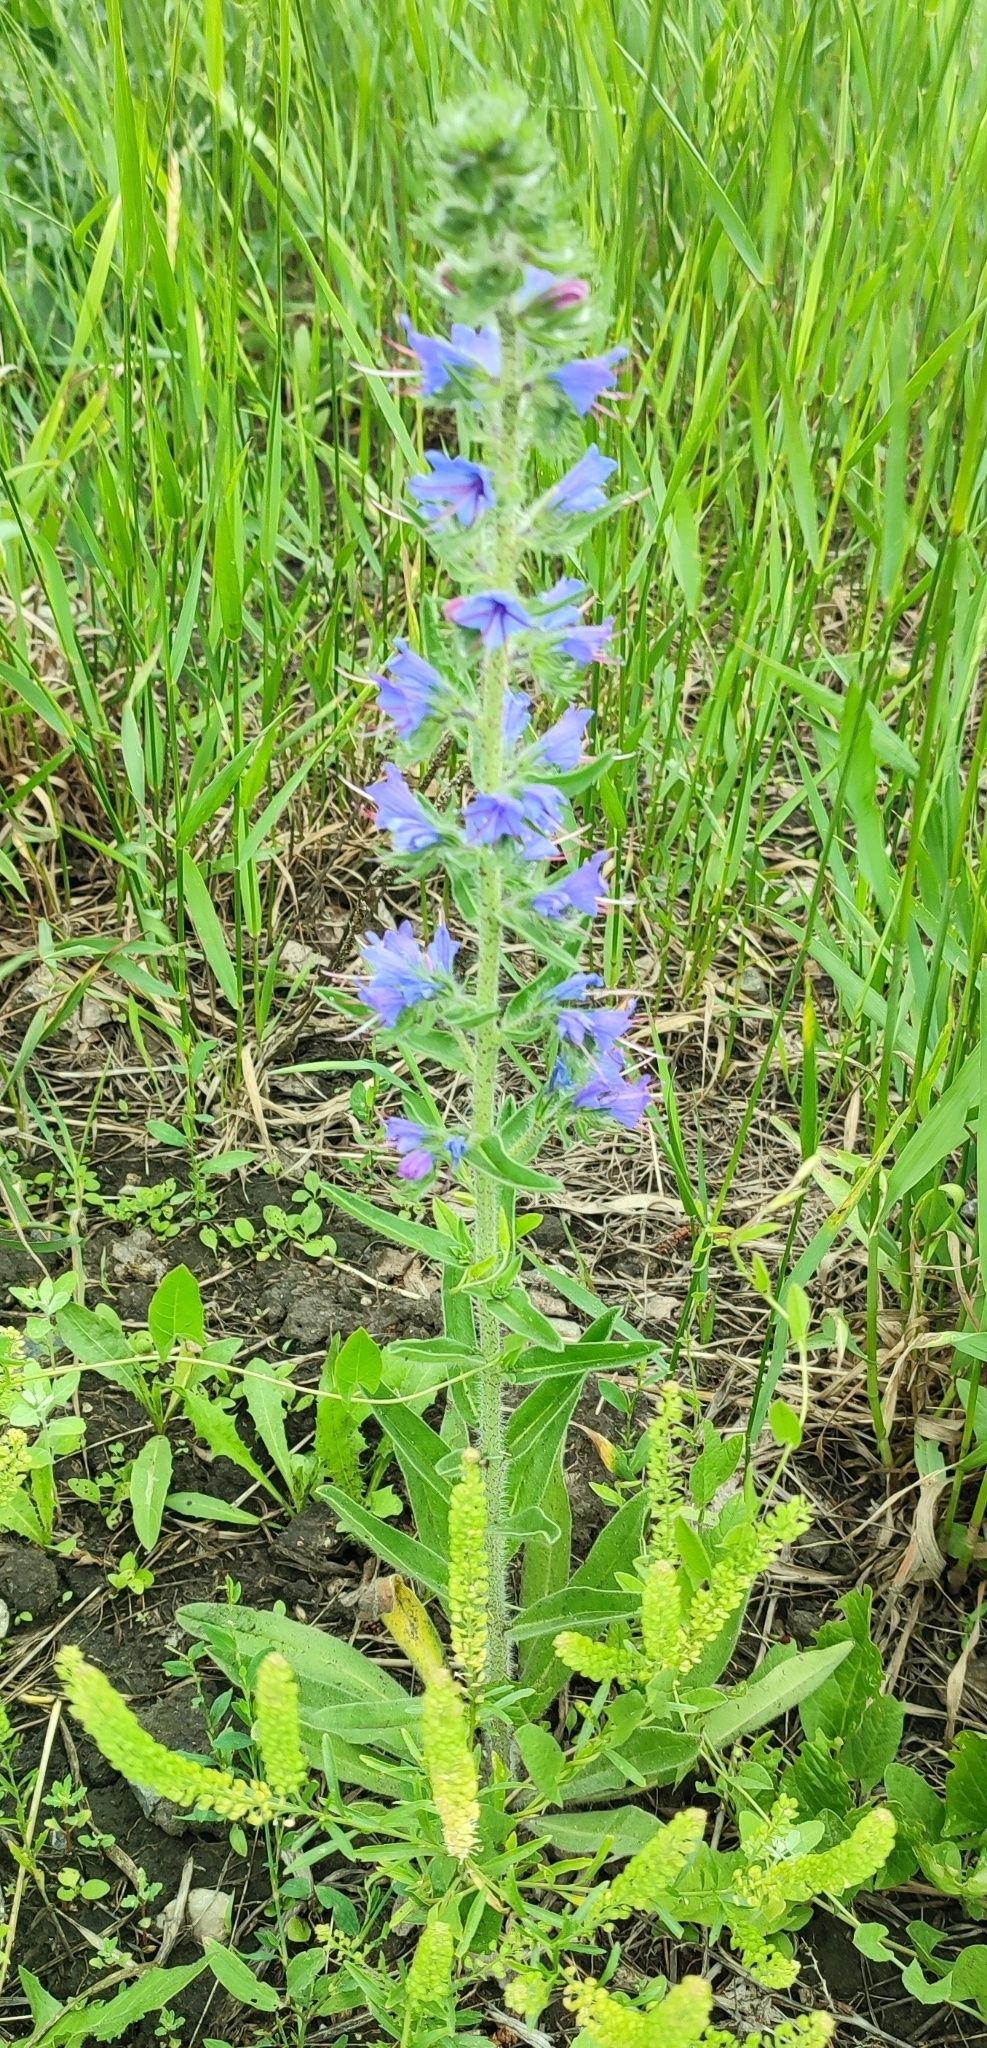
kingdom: Plantae
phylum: Tracheophyta
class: Magnoliopsida
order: Boraginales
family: Boraginaceae
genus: Echium
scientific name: Echium vulgare
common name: Common viper's bugloss
